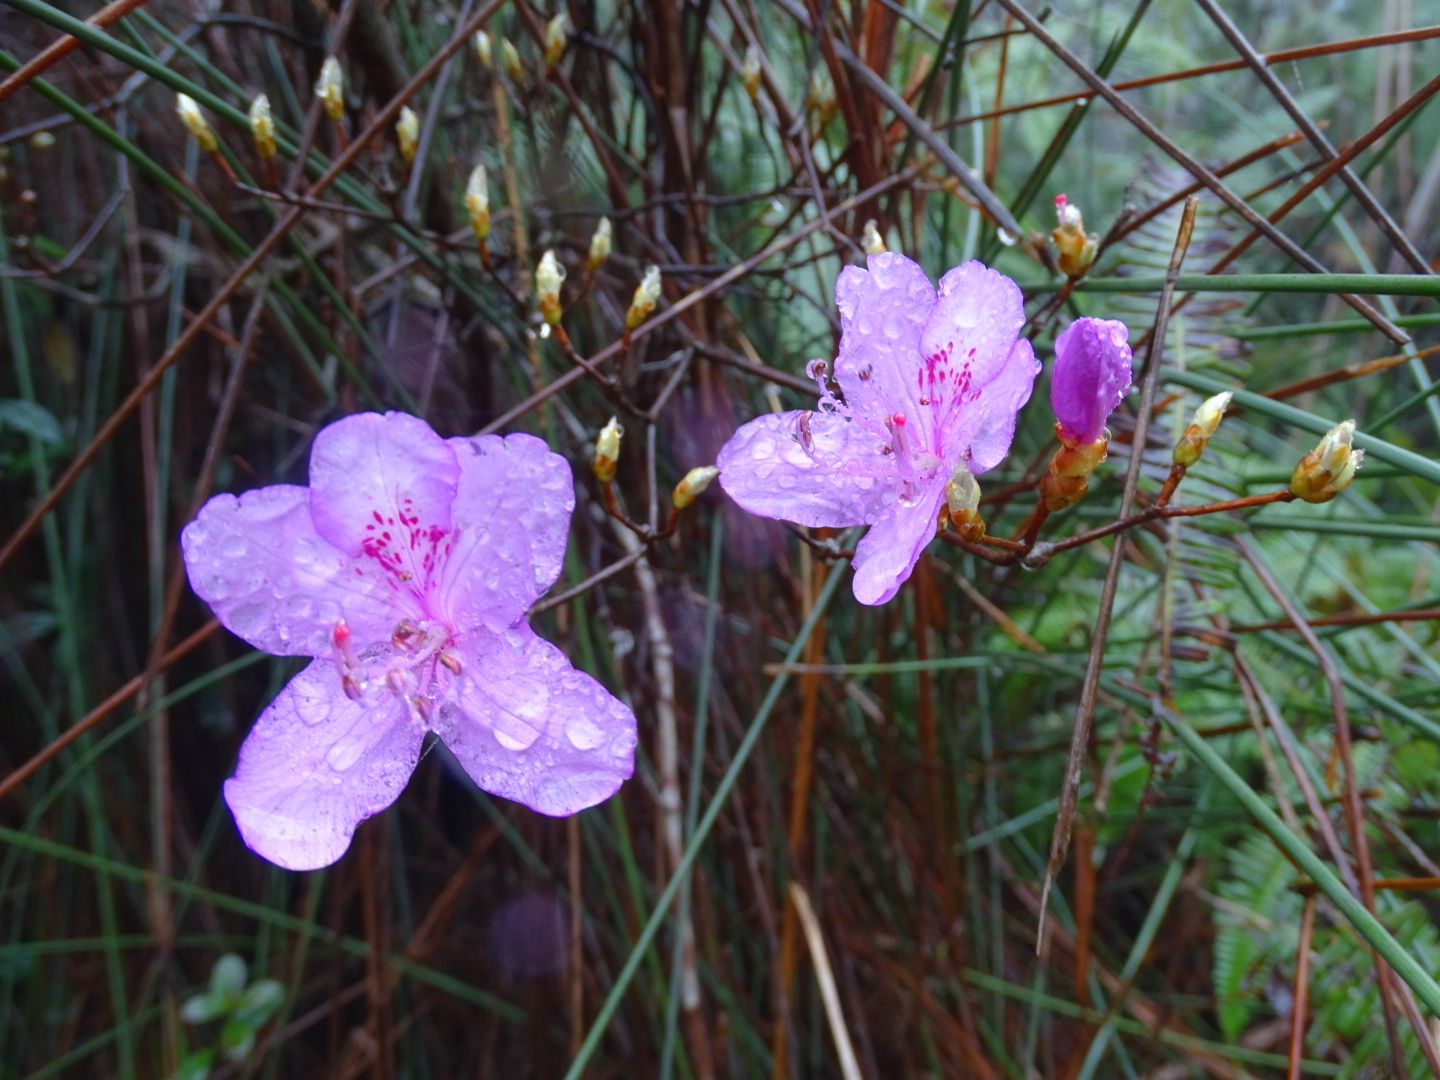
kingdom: Plantae
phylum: Tracheophyta
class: Magnoliopsida
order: Ericales
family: Ericaceae
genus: Rhododendron
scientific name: Rhododendron farrerae
